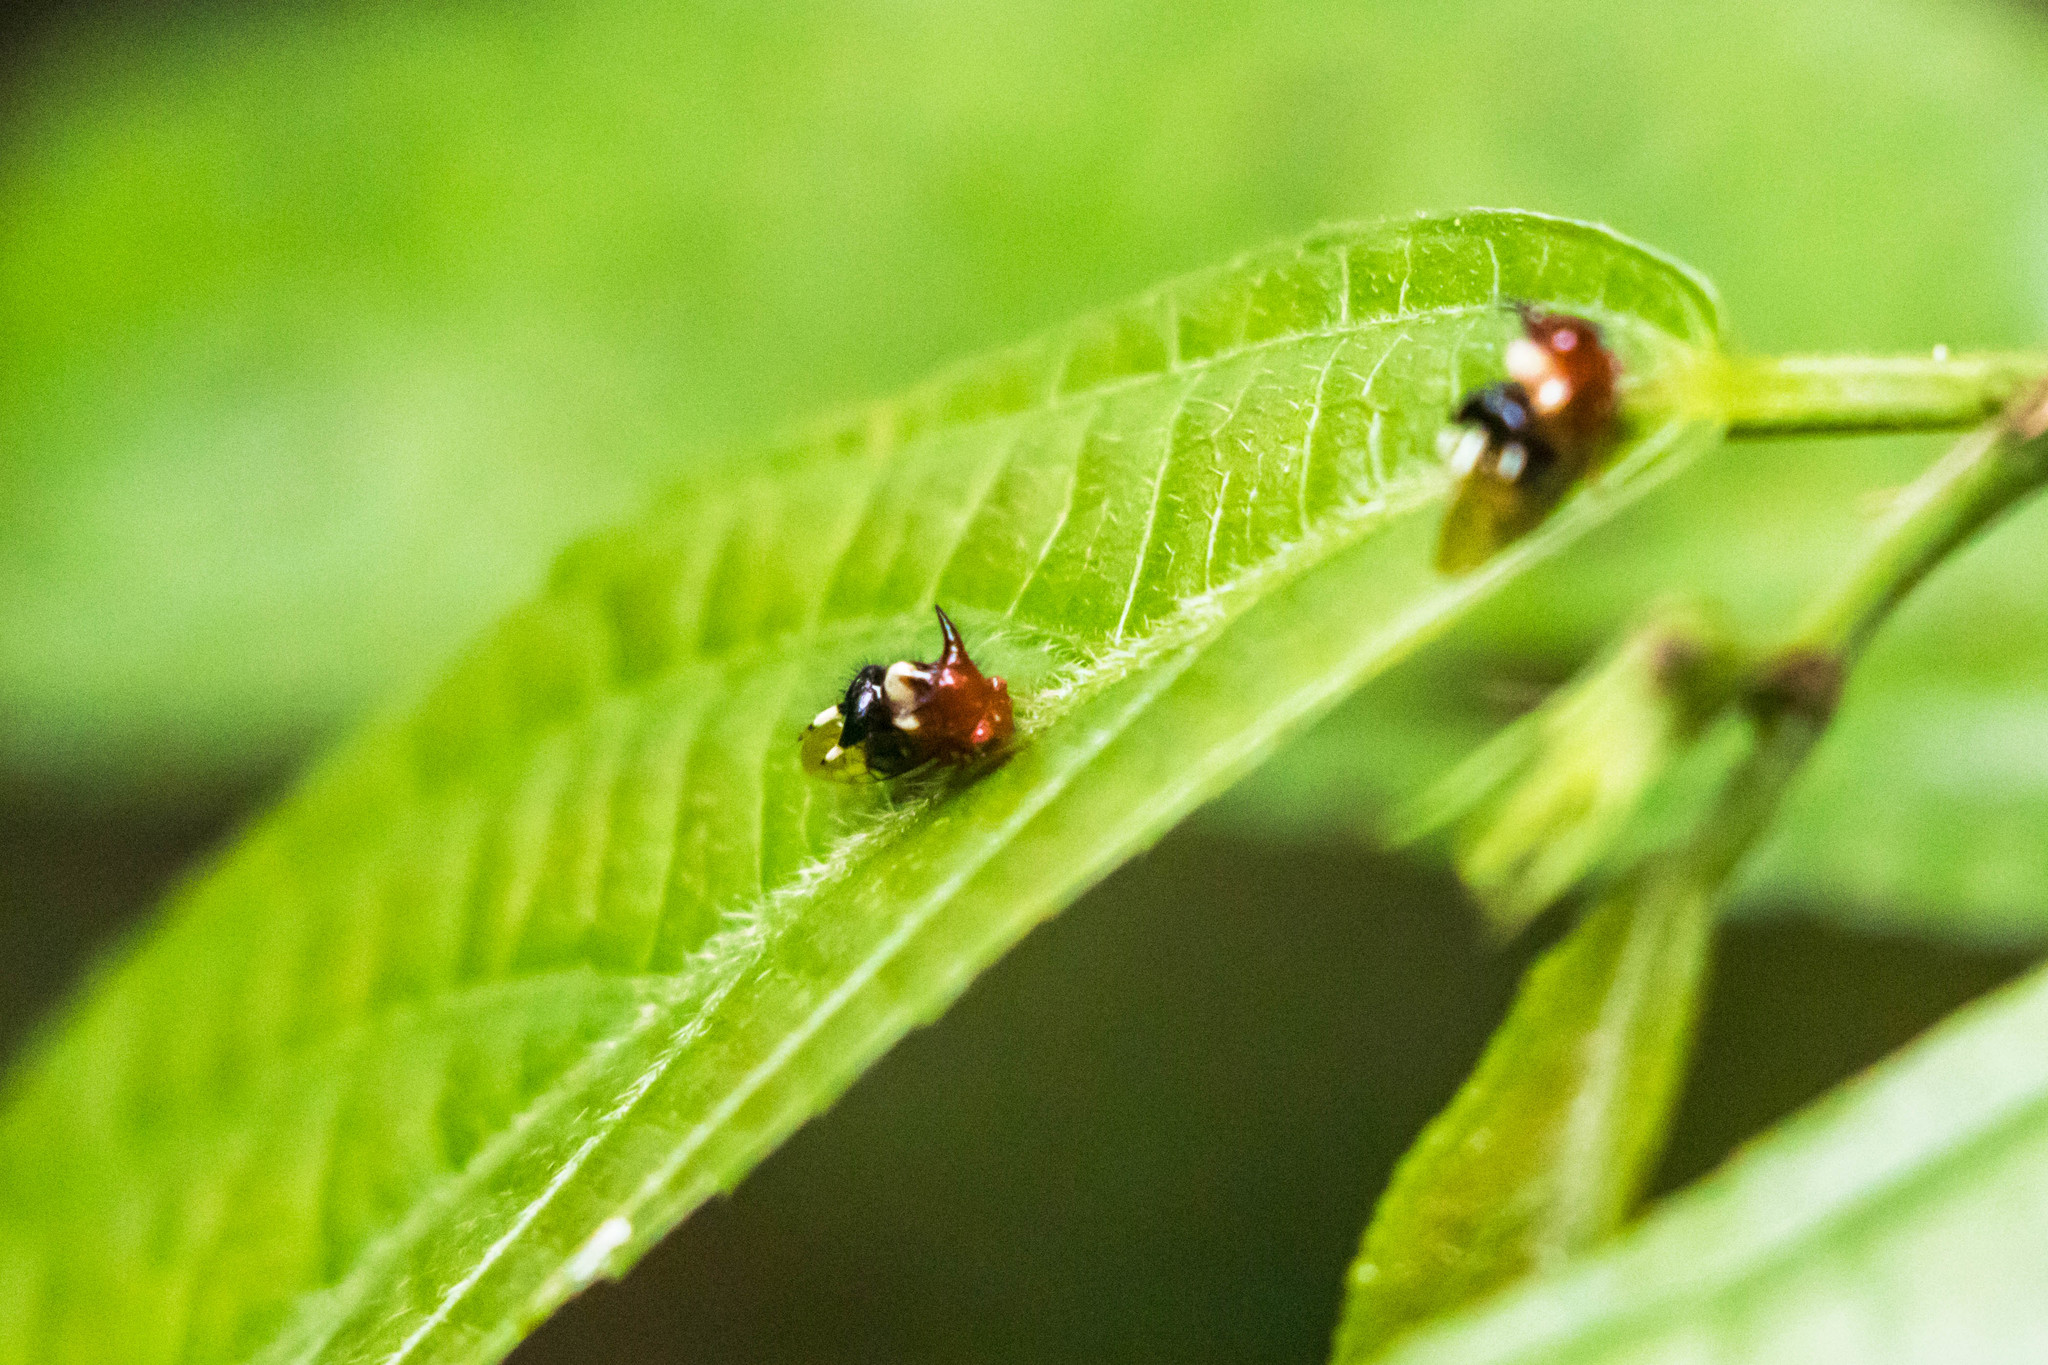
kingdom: Animalia
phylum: Arthropoda
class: Insecta
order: Hemiptera
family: Membracidae
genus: Poppea
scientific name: Poppea capricornis
